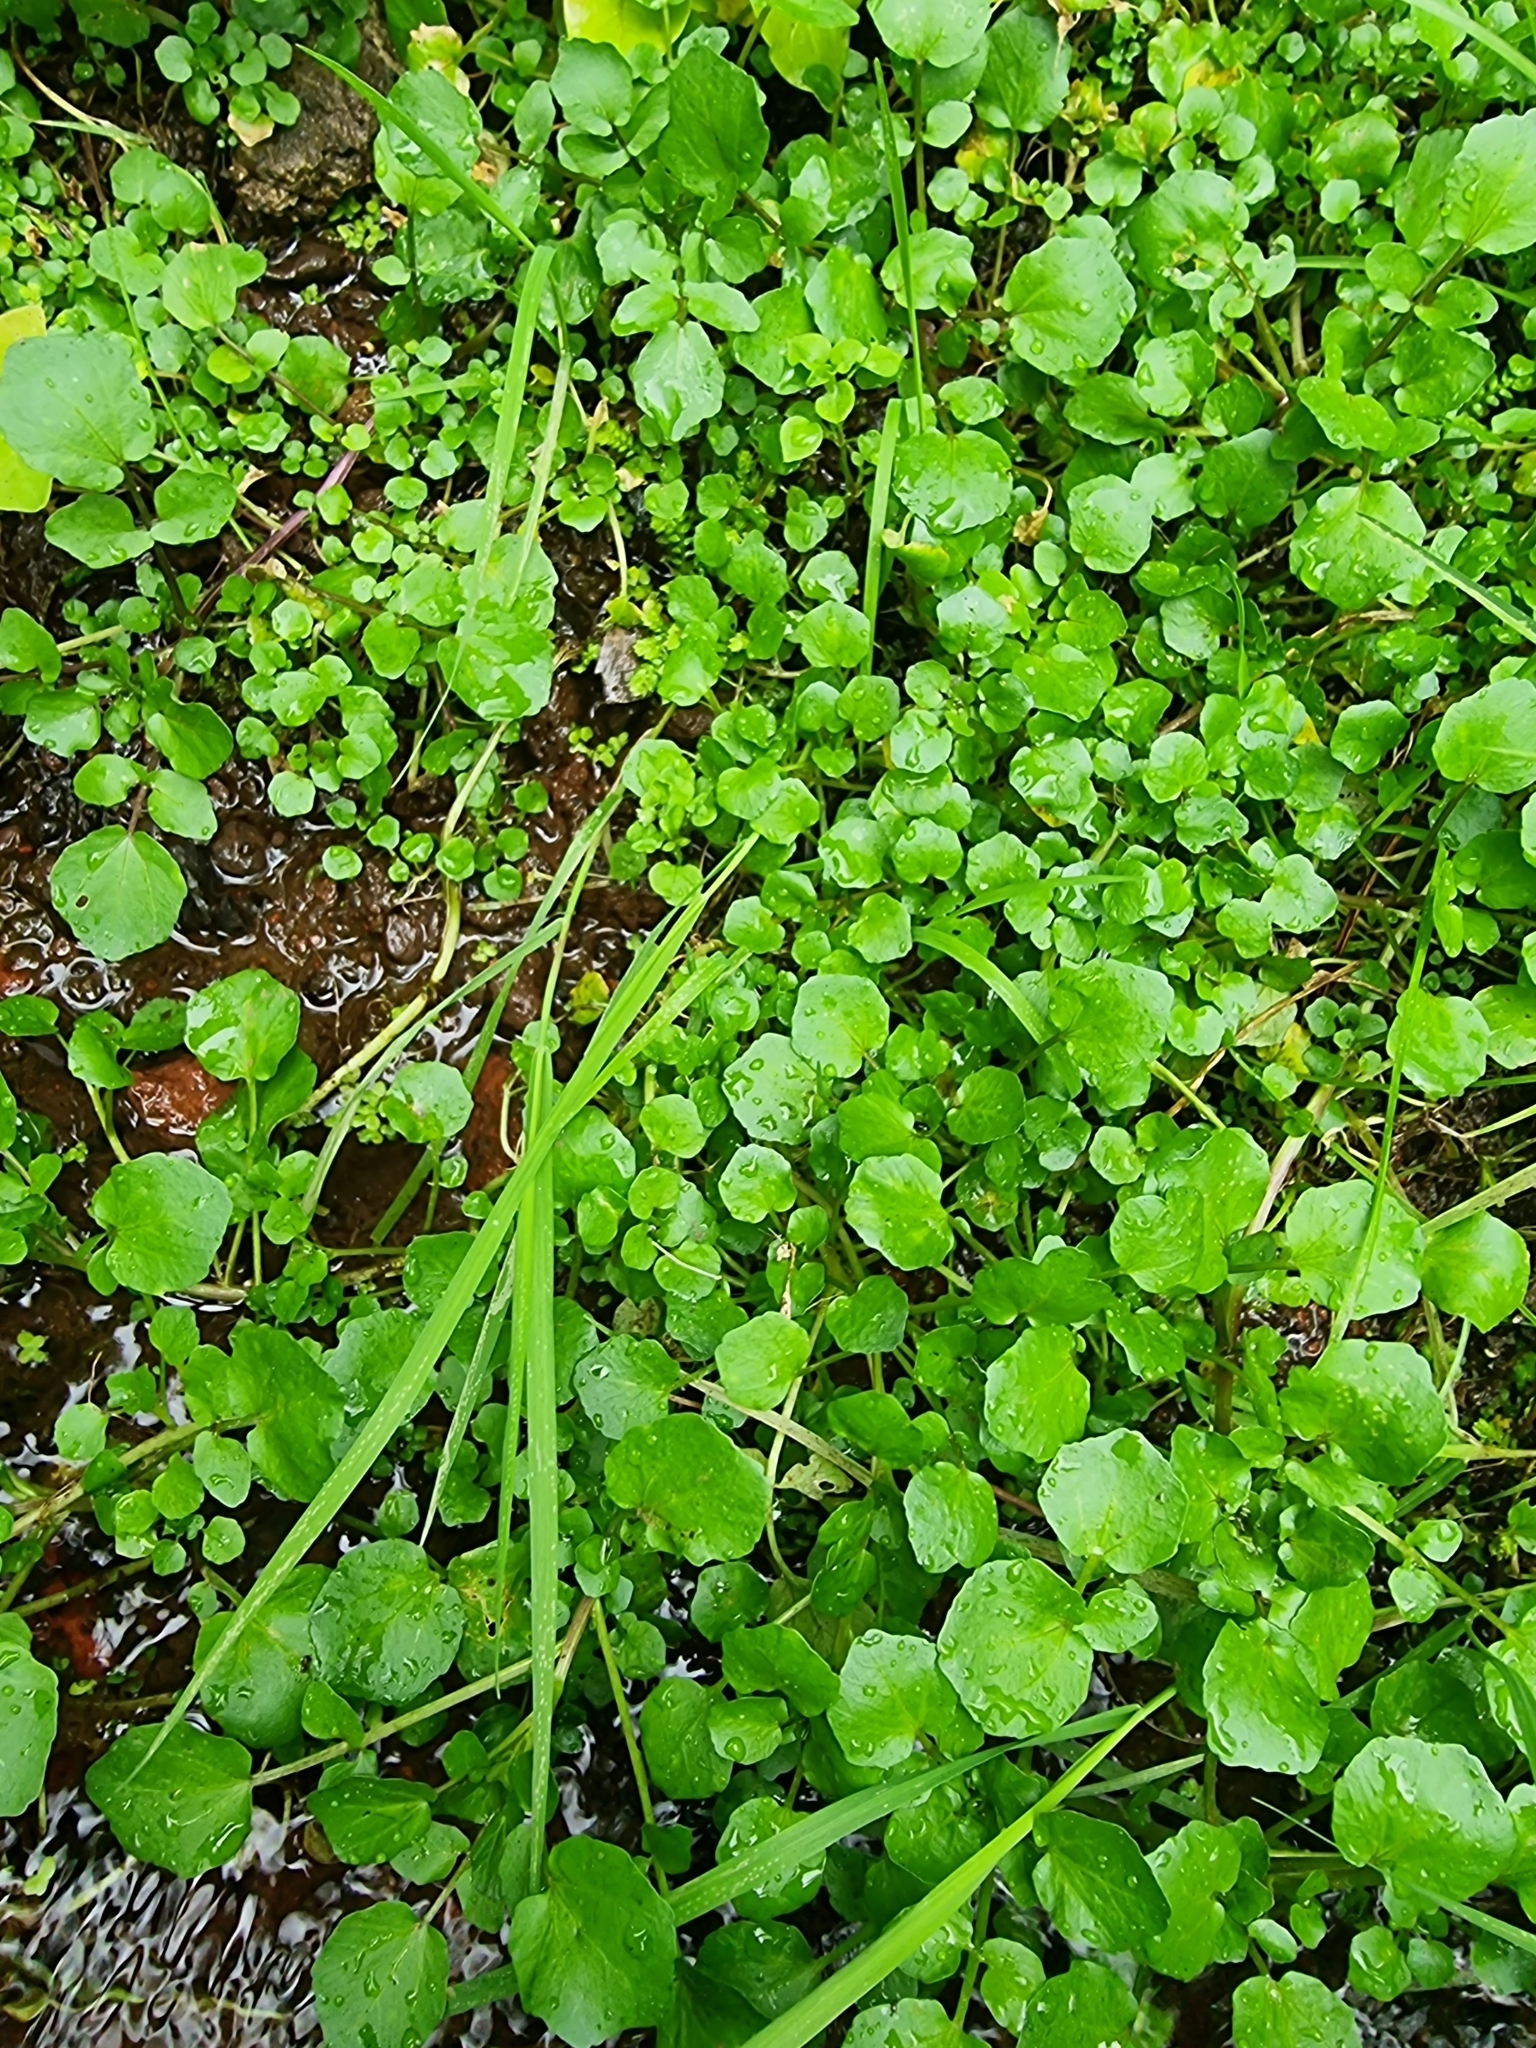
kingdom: Plantae
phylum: Tracheophyta
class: Magnoliopsida
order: Brassicales
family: Brassicaceae
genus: Nasturtium
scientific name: Nasturtium officinale
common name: Watercress
